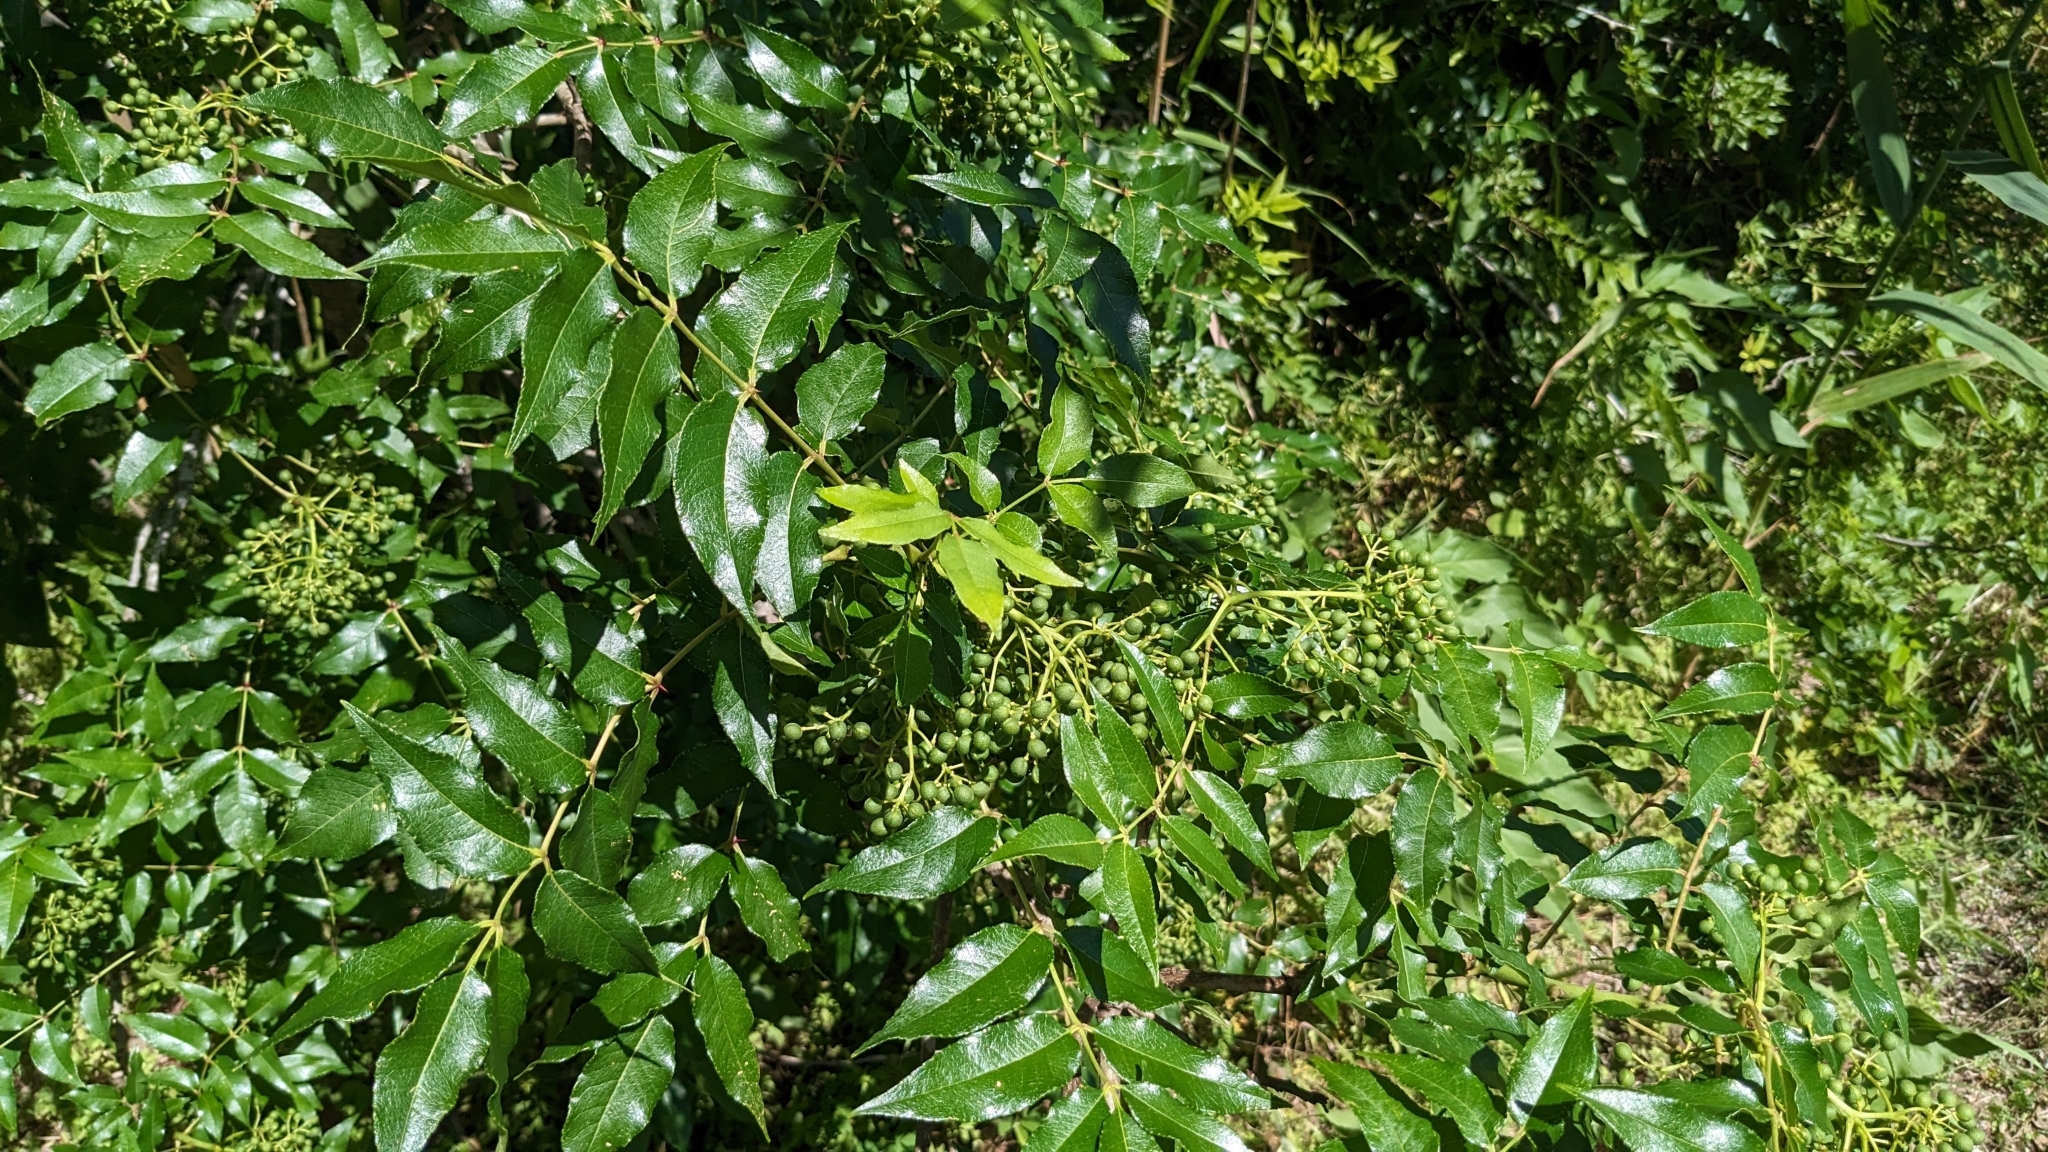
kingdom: Plantae
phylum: Tracheophyta
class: Magnoliopsida
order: Sapindales
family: Rutaceae
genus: Zanthoxylum
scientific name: Zanthoxylum clava-herculis
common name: Hercules'-club
